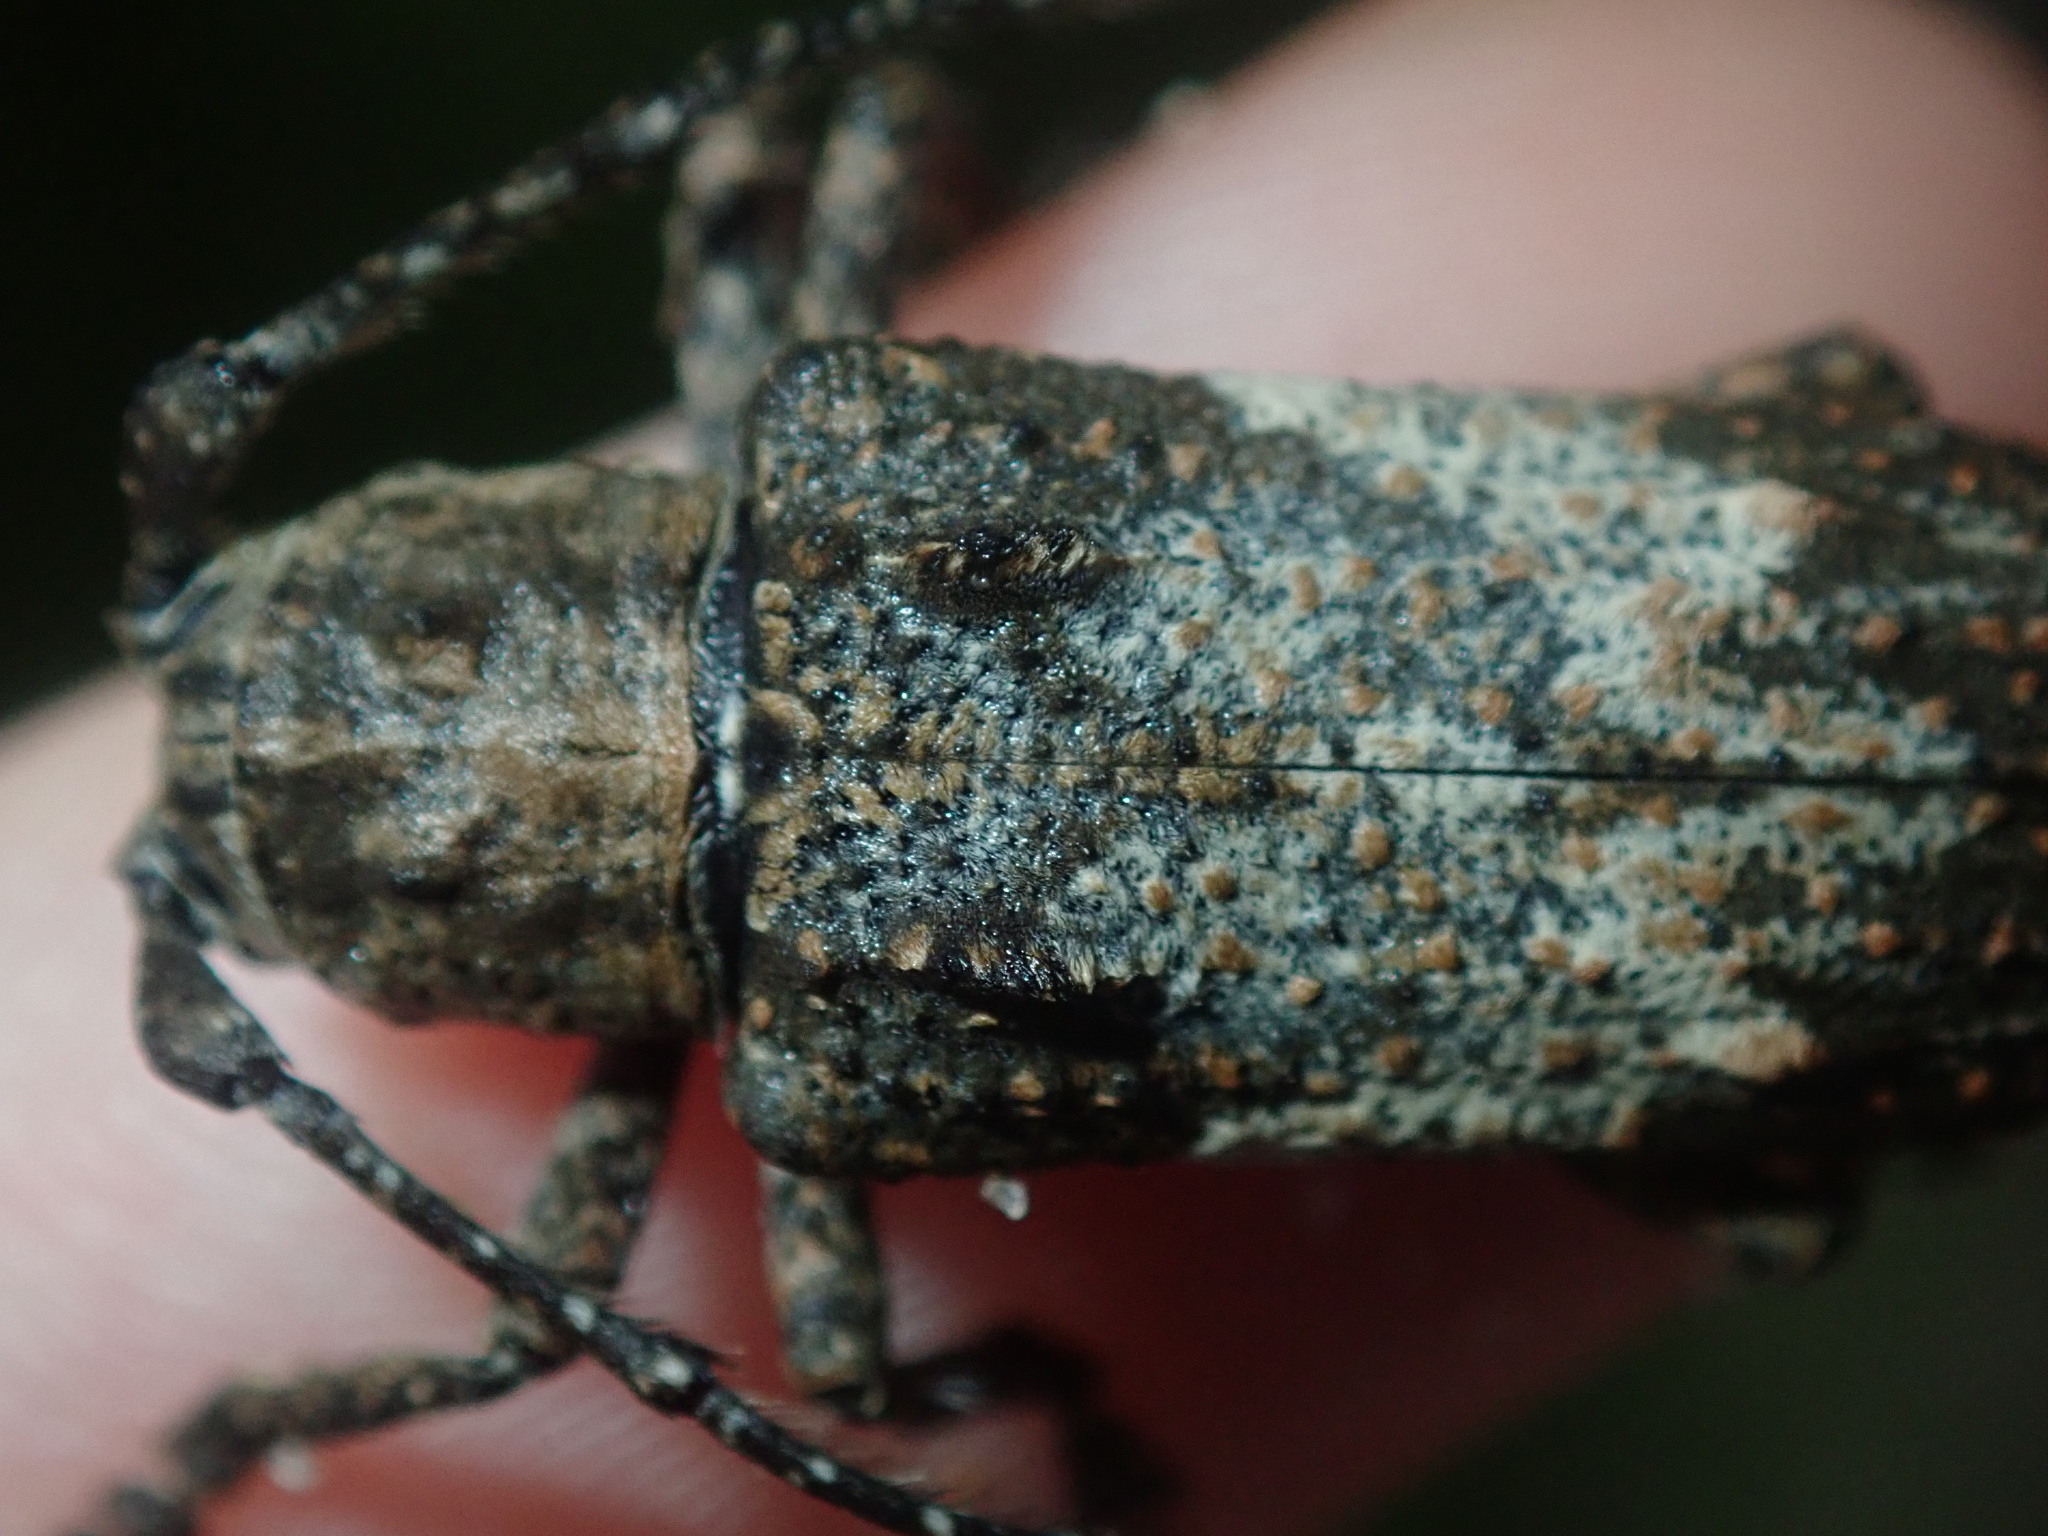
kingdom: Animalia
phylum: Arthropoda
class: Insecta
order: Coleoptera
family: Cerambycidae
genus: Rhytiphora
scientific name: Rhytiphora piligera
